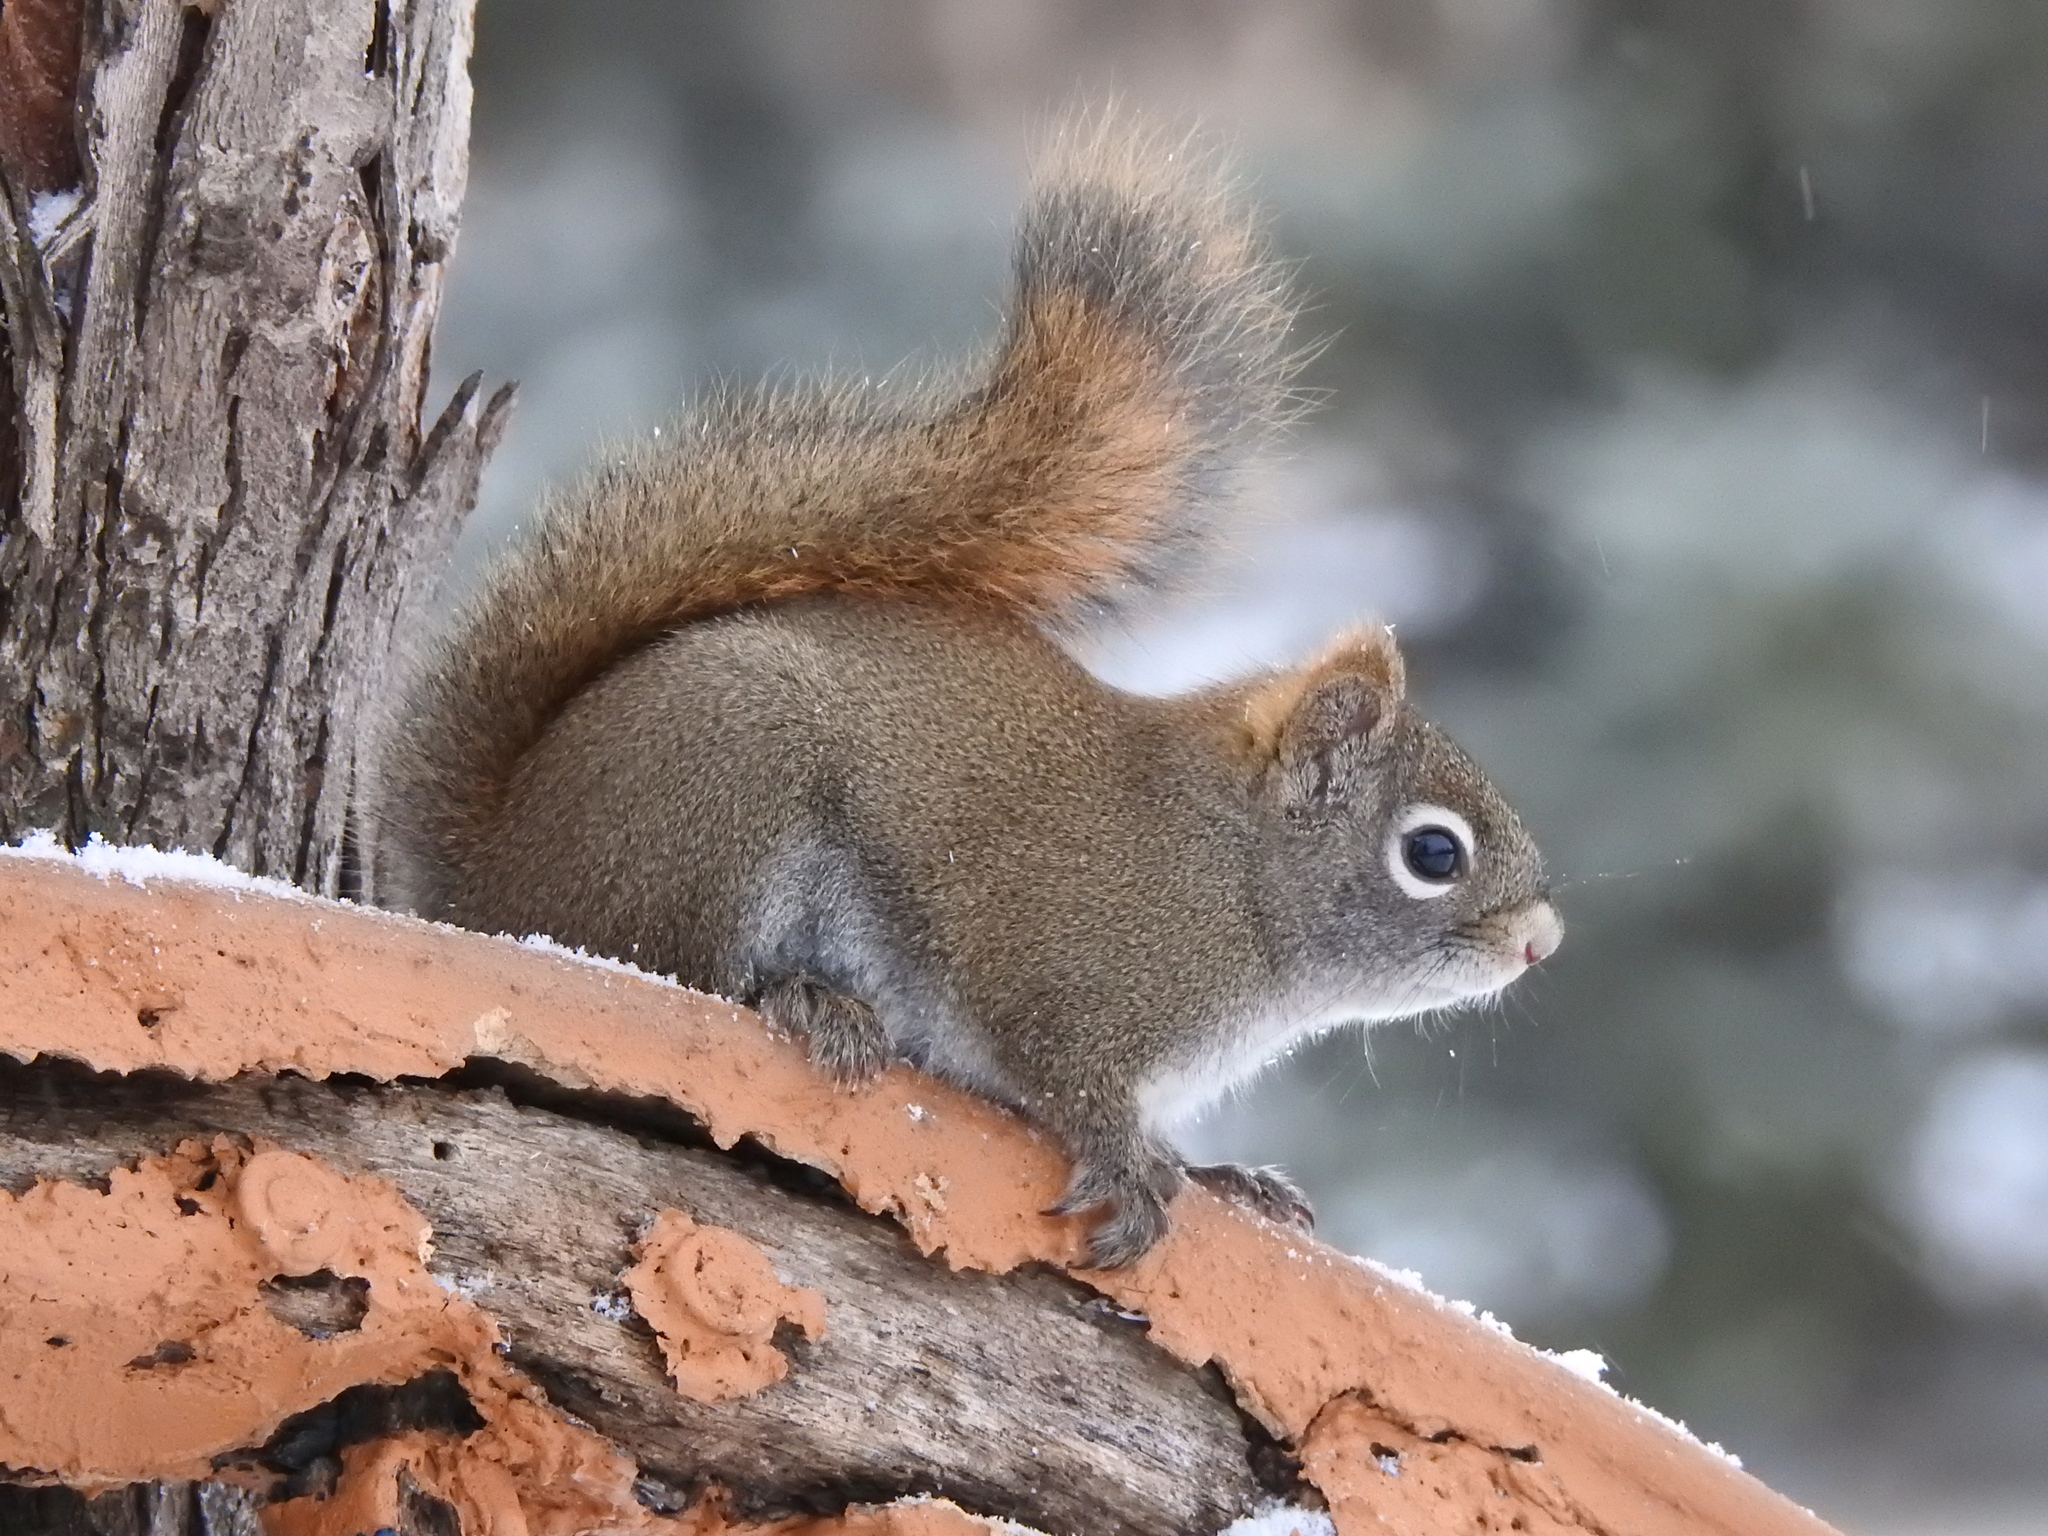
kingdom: Animalia
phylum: Chordata
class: Mammalia
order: Rodentia
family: Sciuridae
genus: Tamiasciurus
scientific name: Tamiasciurus hudsonicus
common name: Red squirrel
